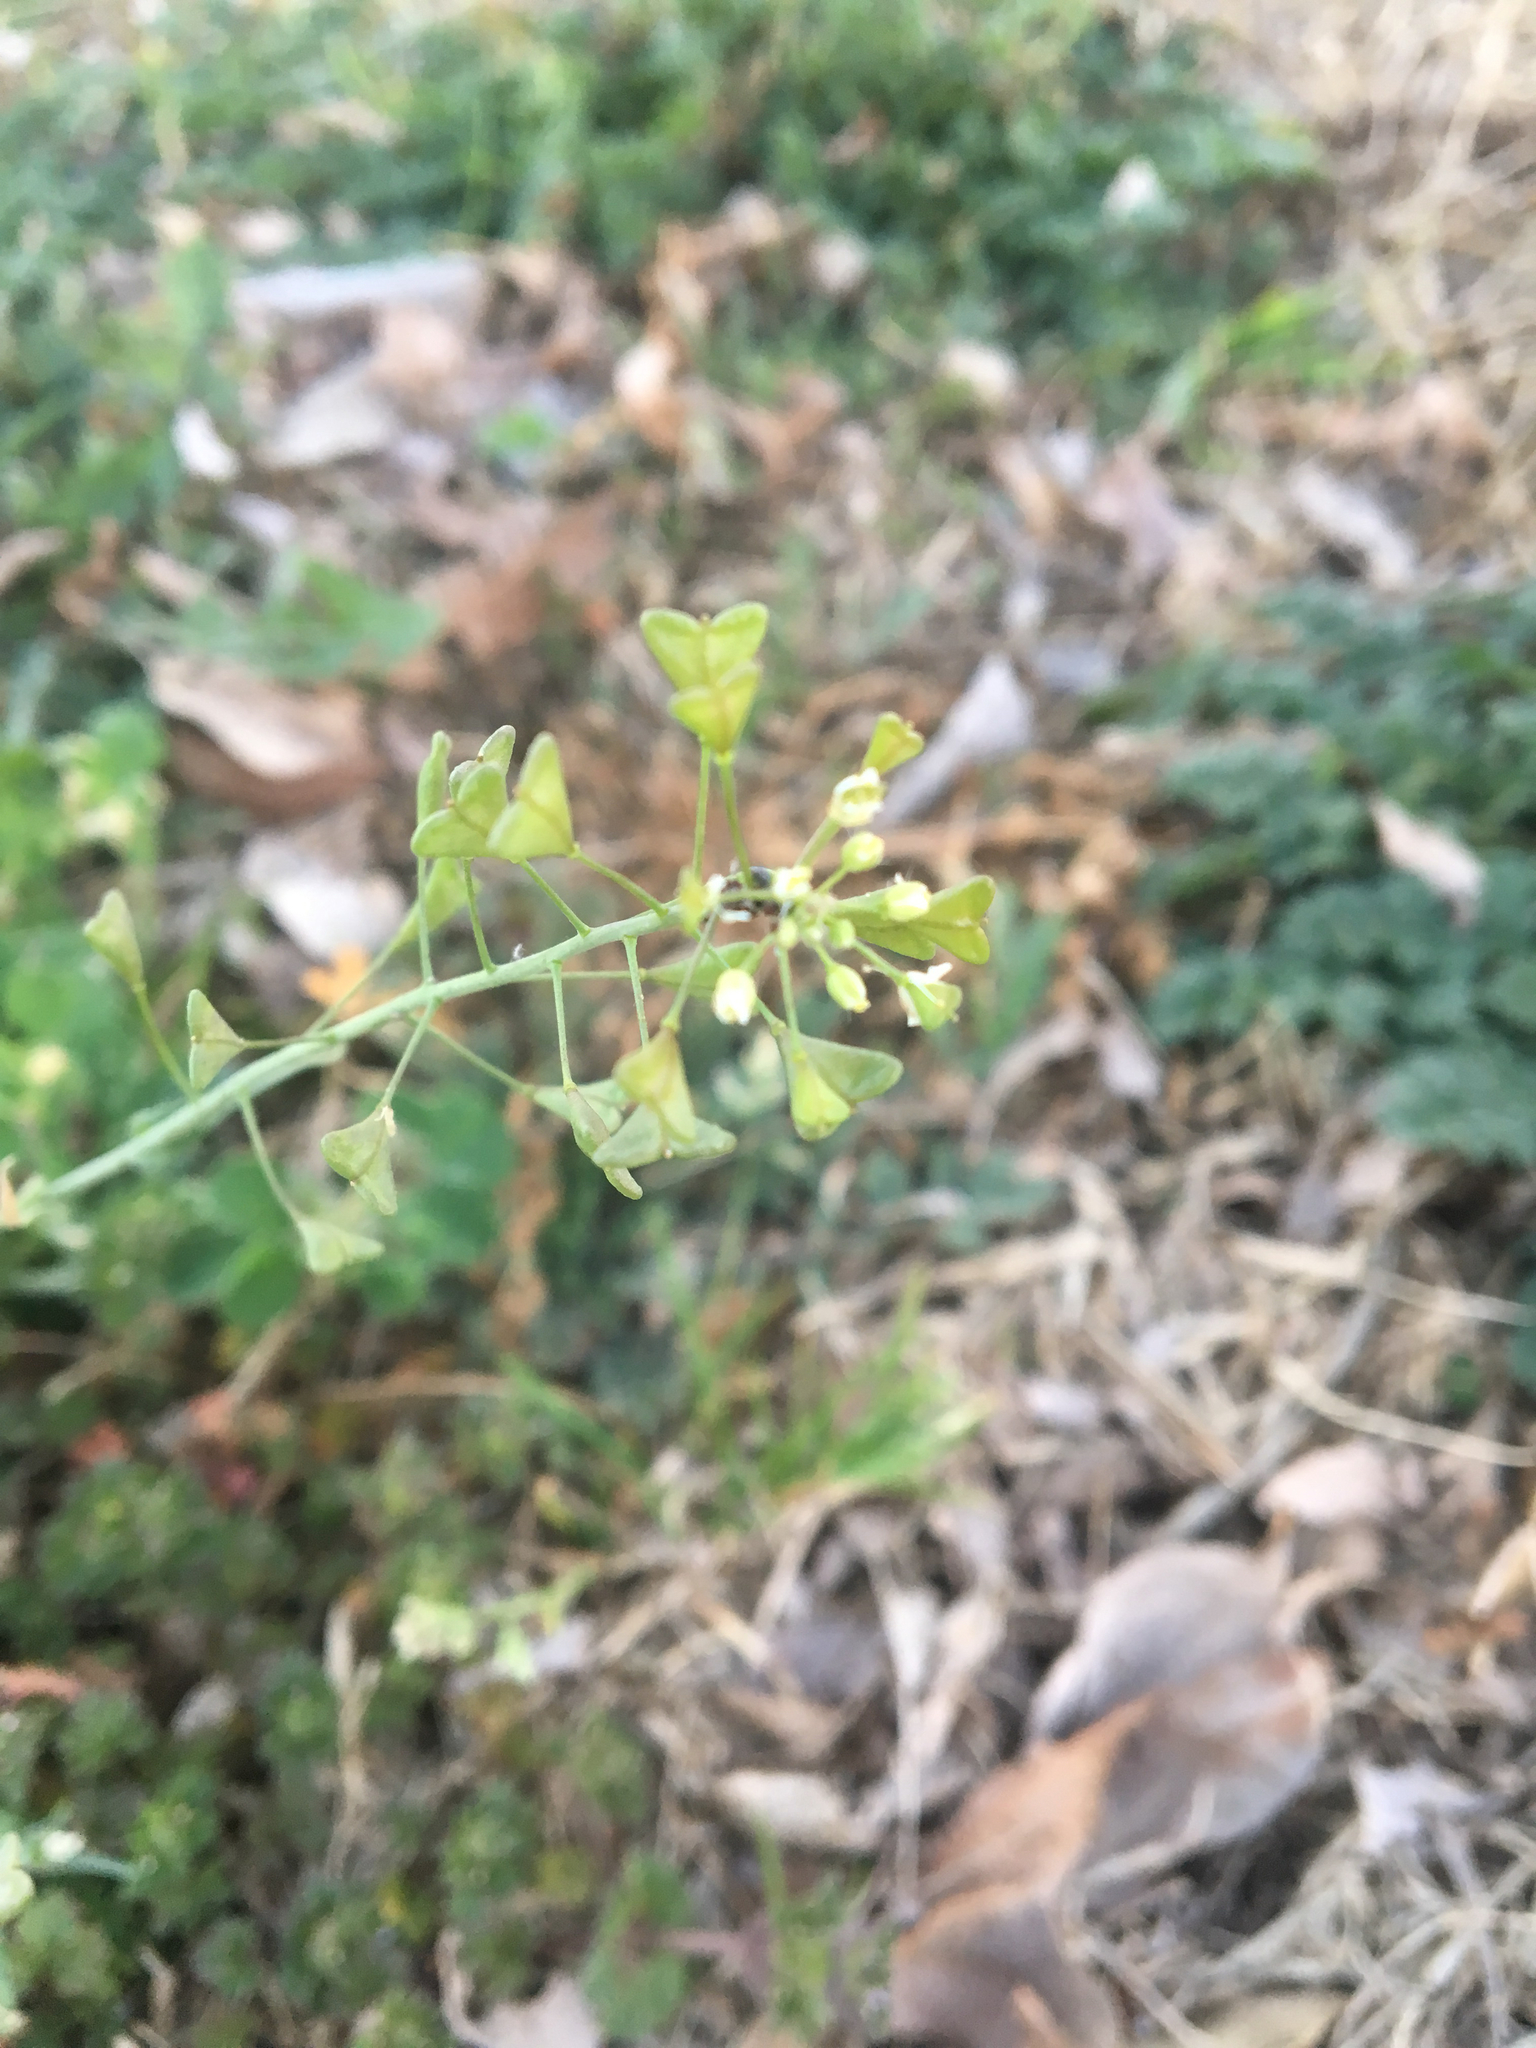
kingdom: Plantae
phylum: Tracheophyta
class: Magnoliopsida
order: Brassicales
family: Brassicaceae
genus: Capsella
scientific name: Capsella bursa-pastoris
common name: Shepherd's purse
